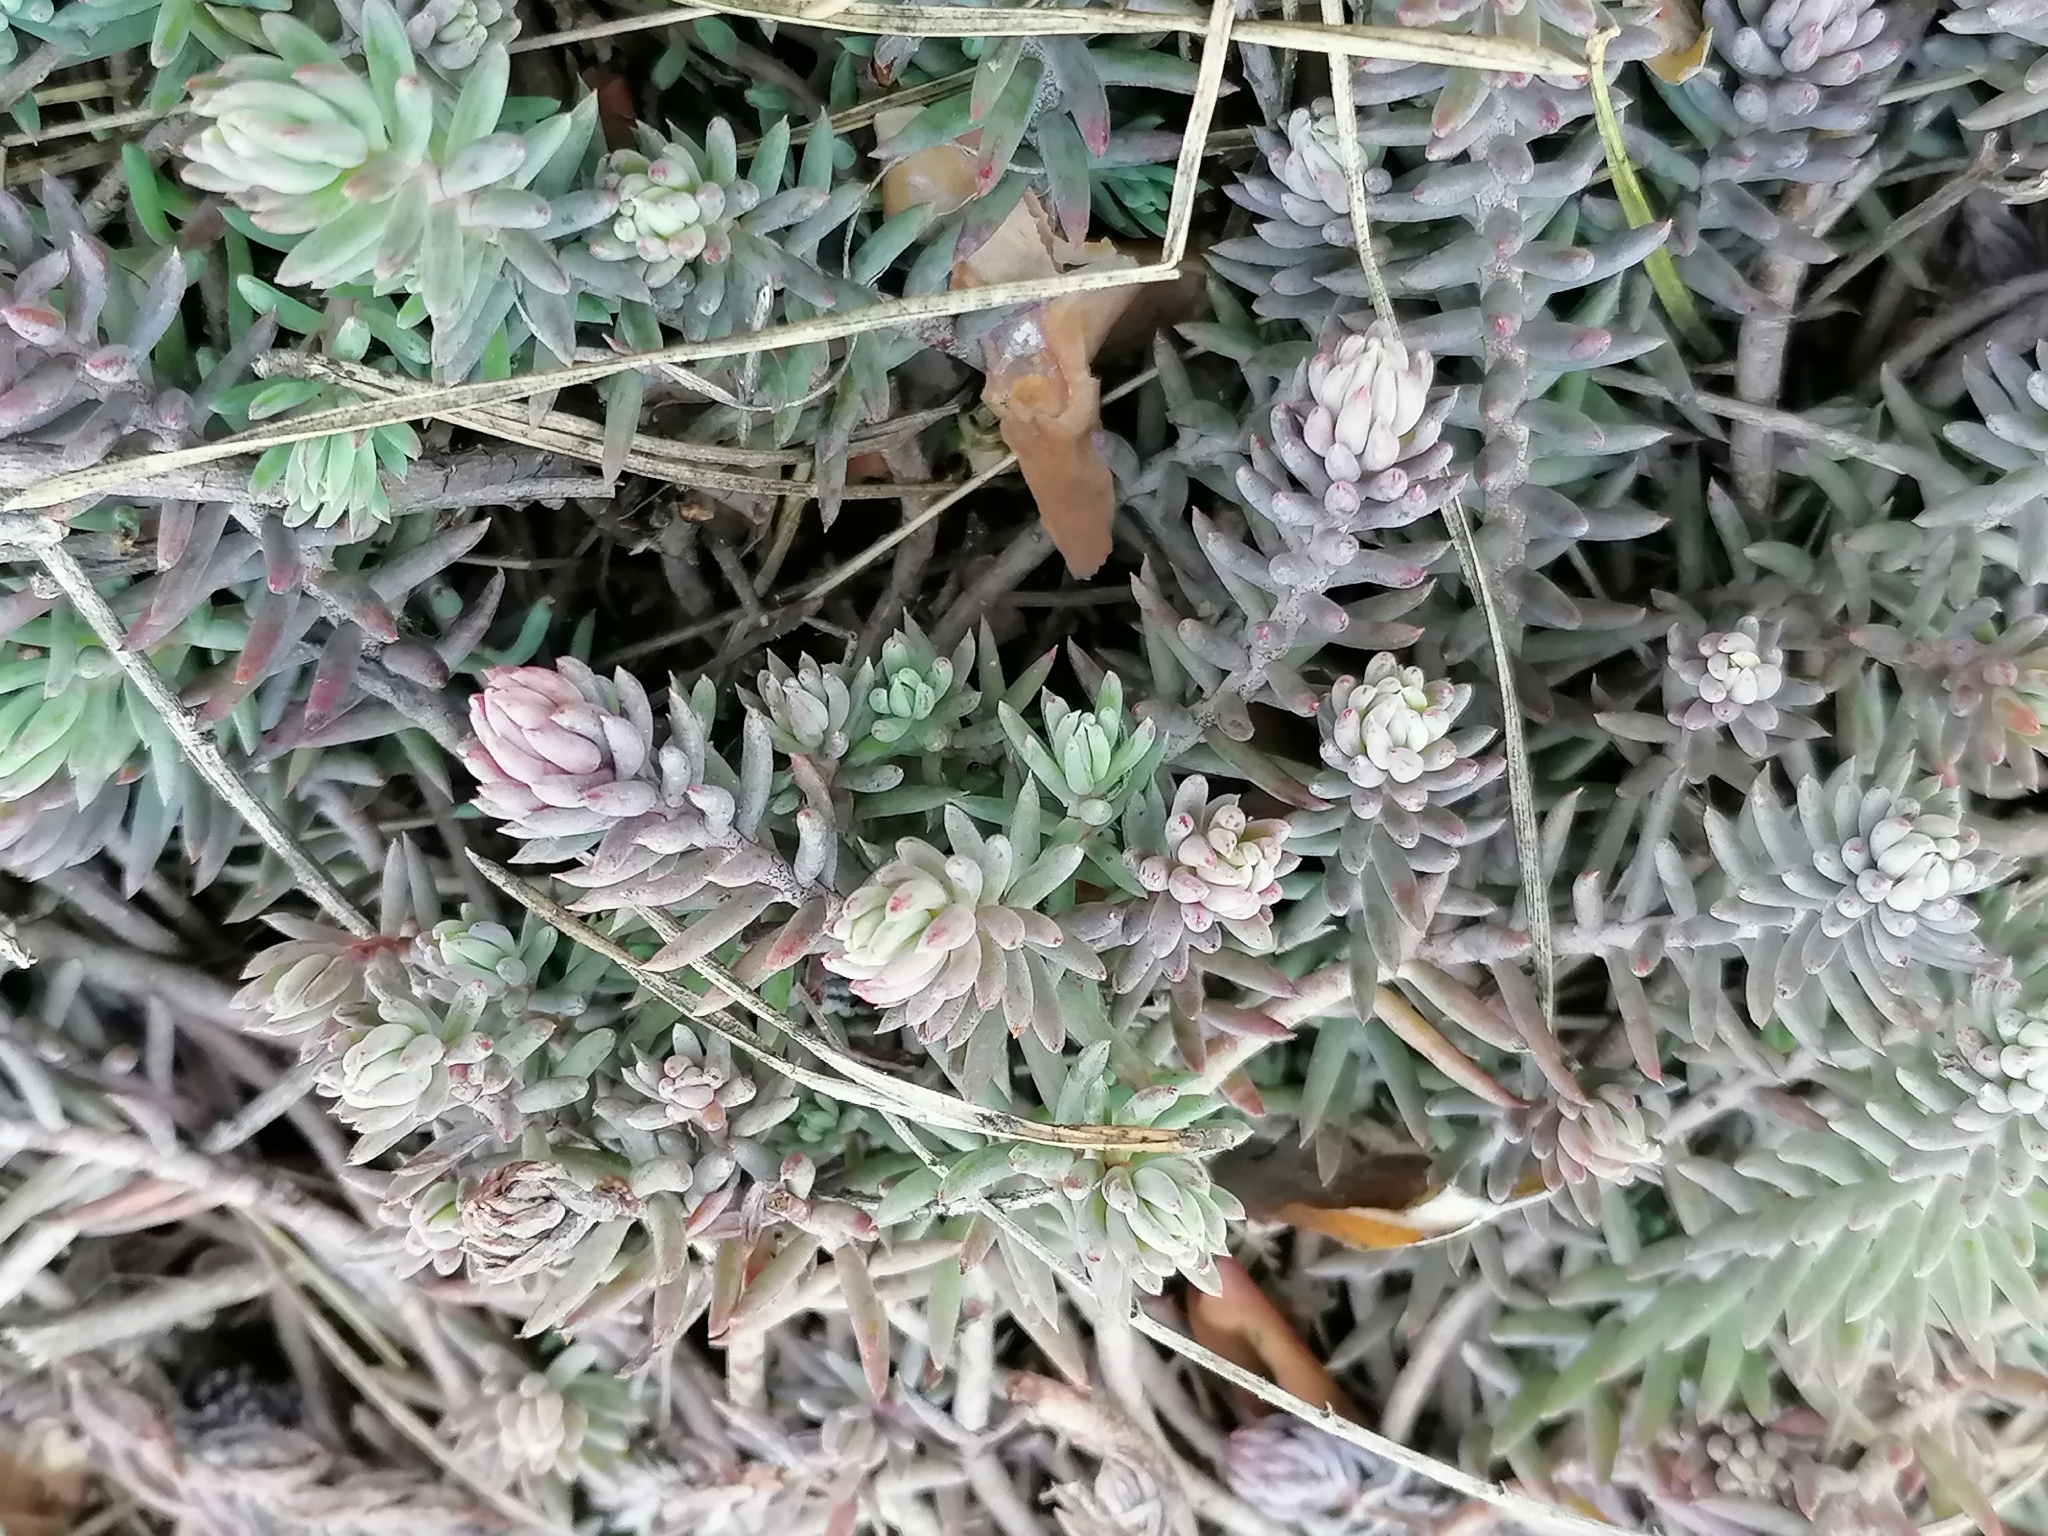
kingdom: Plantae
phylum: Tracheophyta
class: Magnoliopsida
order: Saxifragales
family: Crassulaceae
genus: Petrosedum
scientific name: Petrosedum rupestre
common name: Jenny's stonecrop
